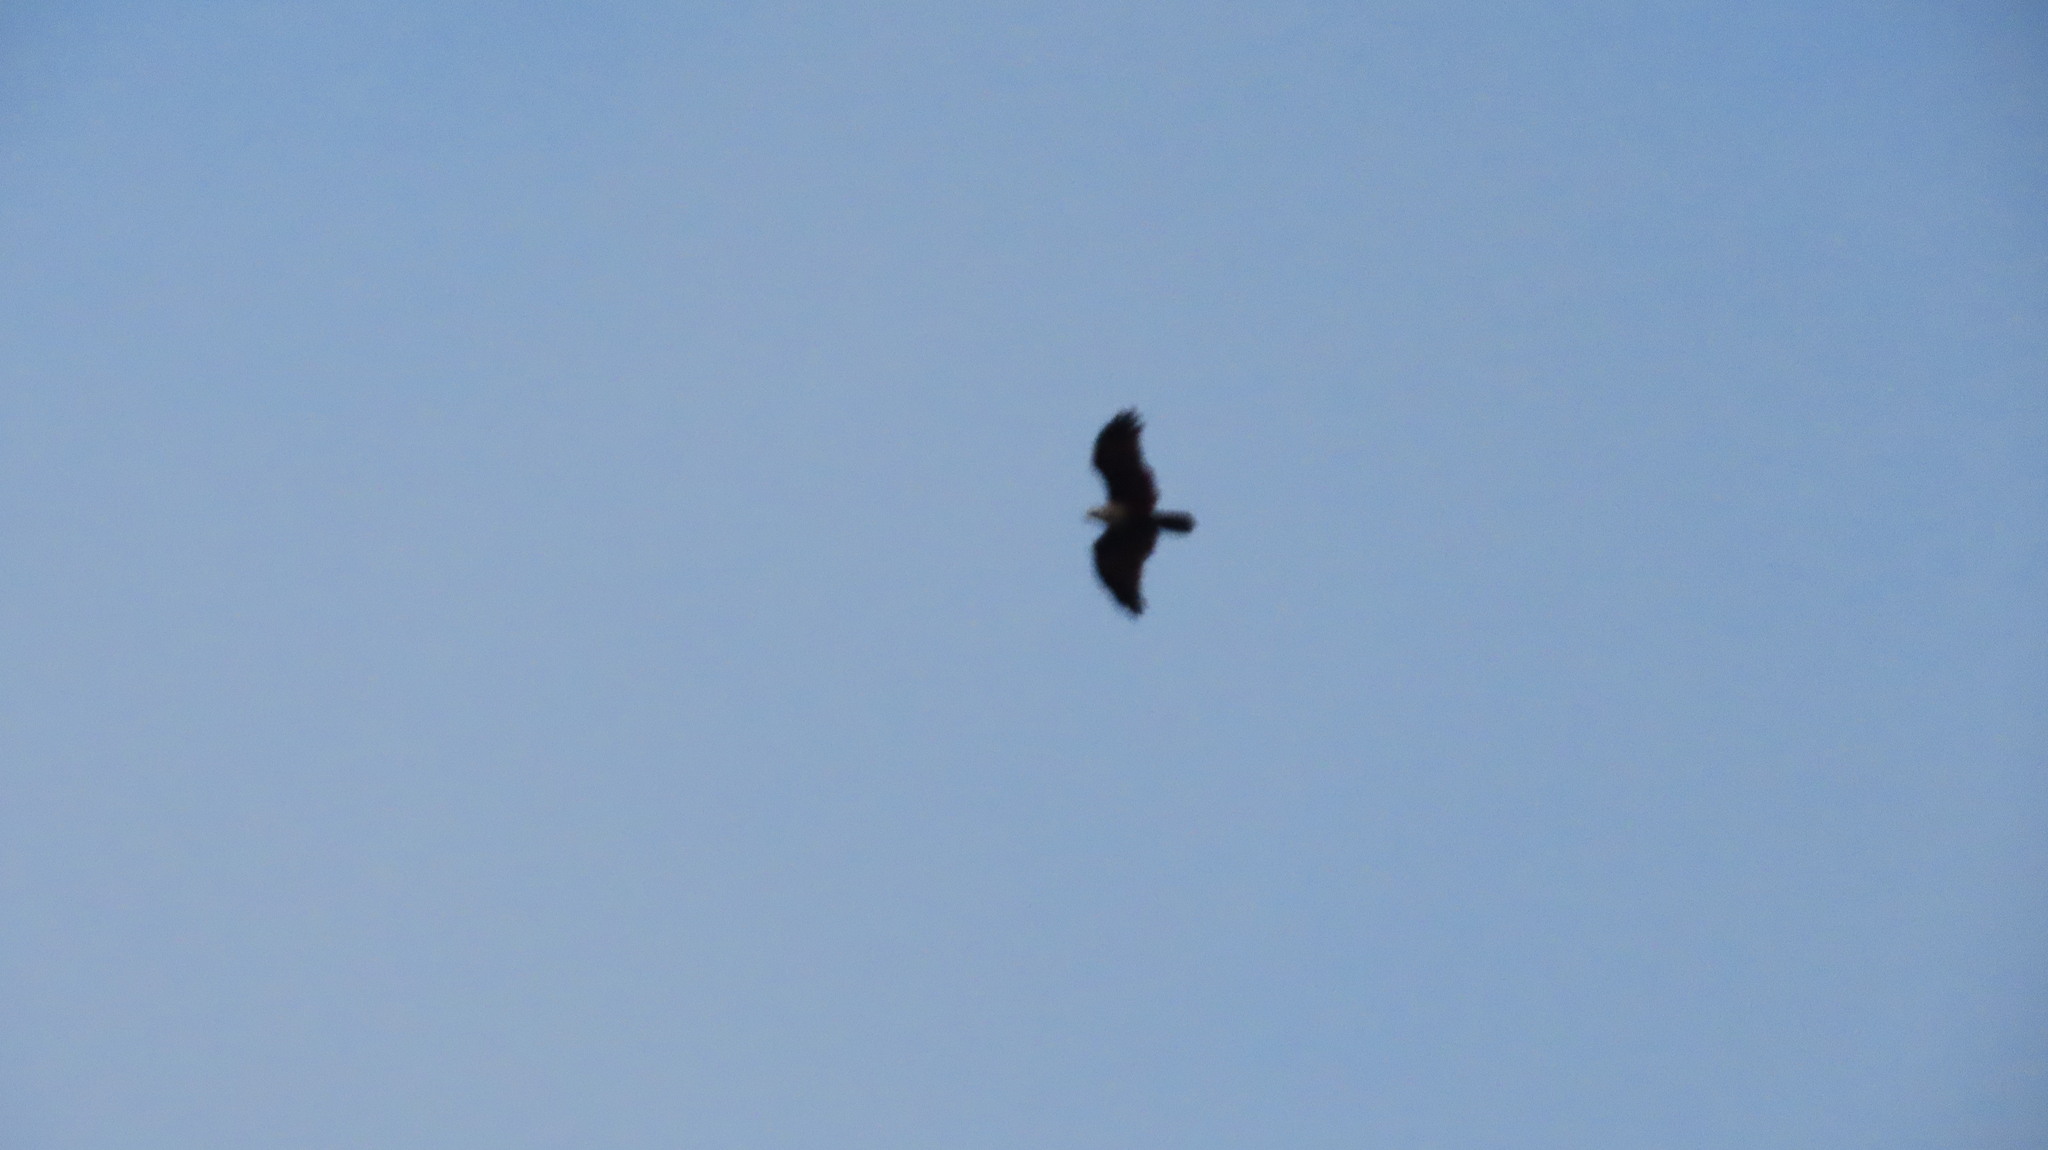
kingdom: Animalia
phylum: Chordata
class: Aves
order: Accipitriformes
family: Accipitridae
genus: Haliastur
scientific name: Haliastur indus
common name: Brahminy kite
